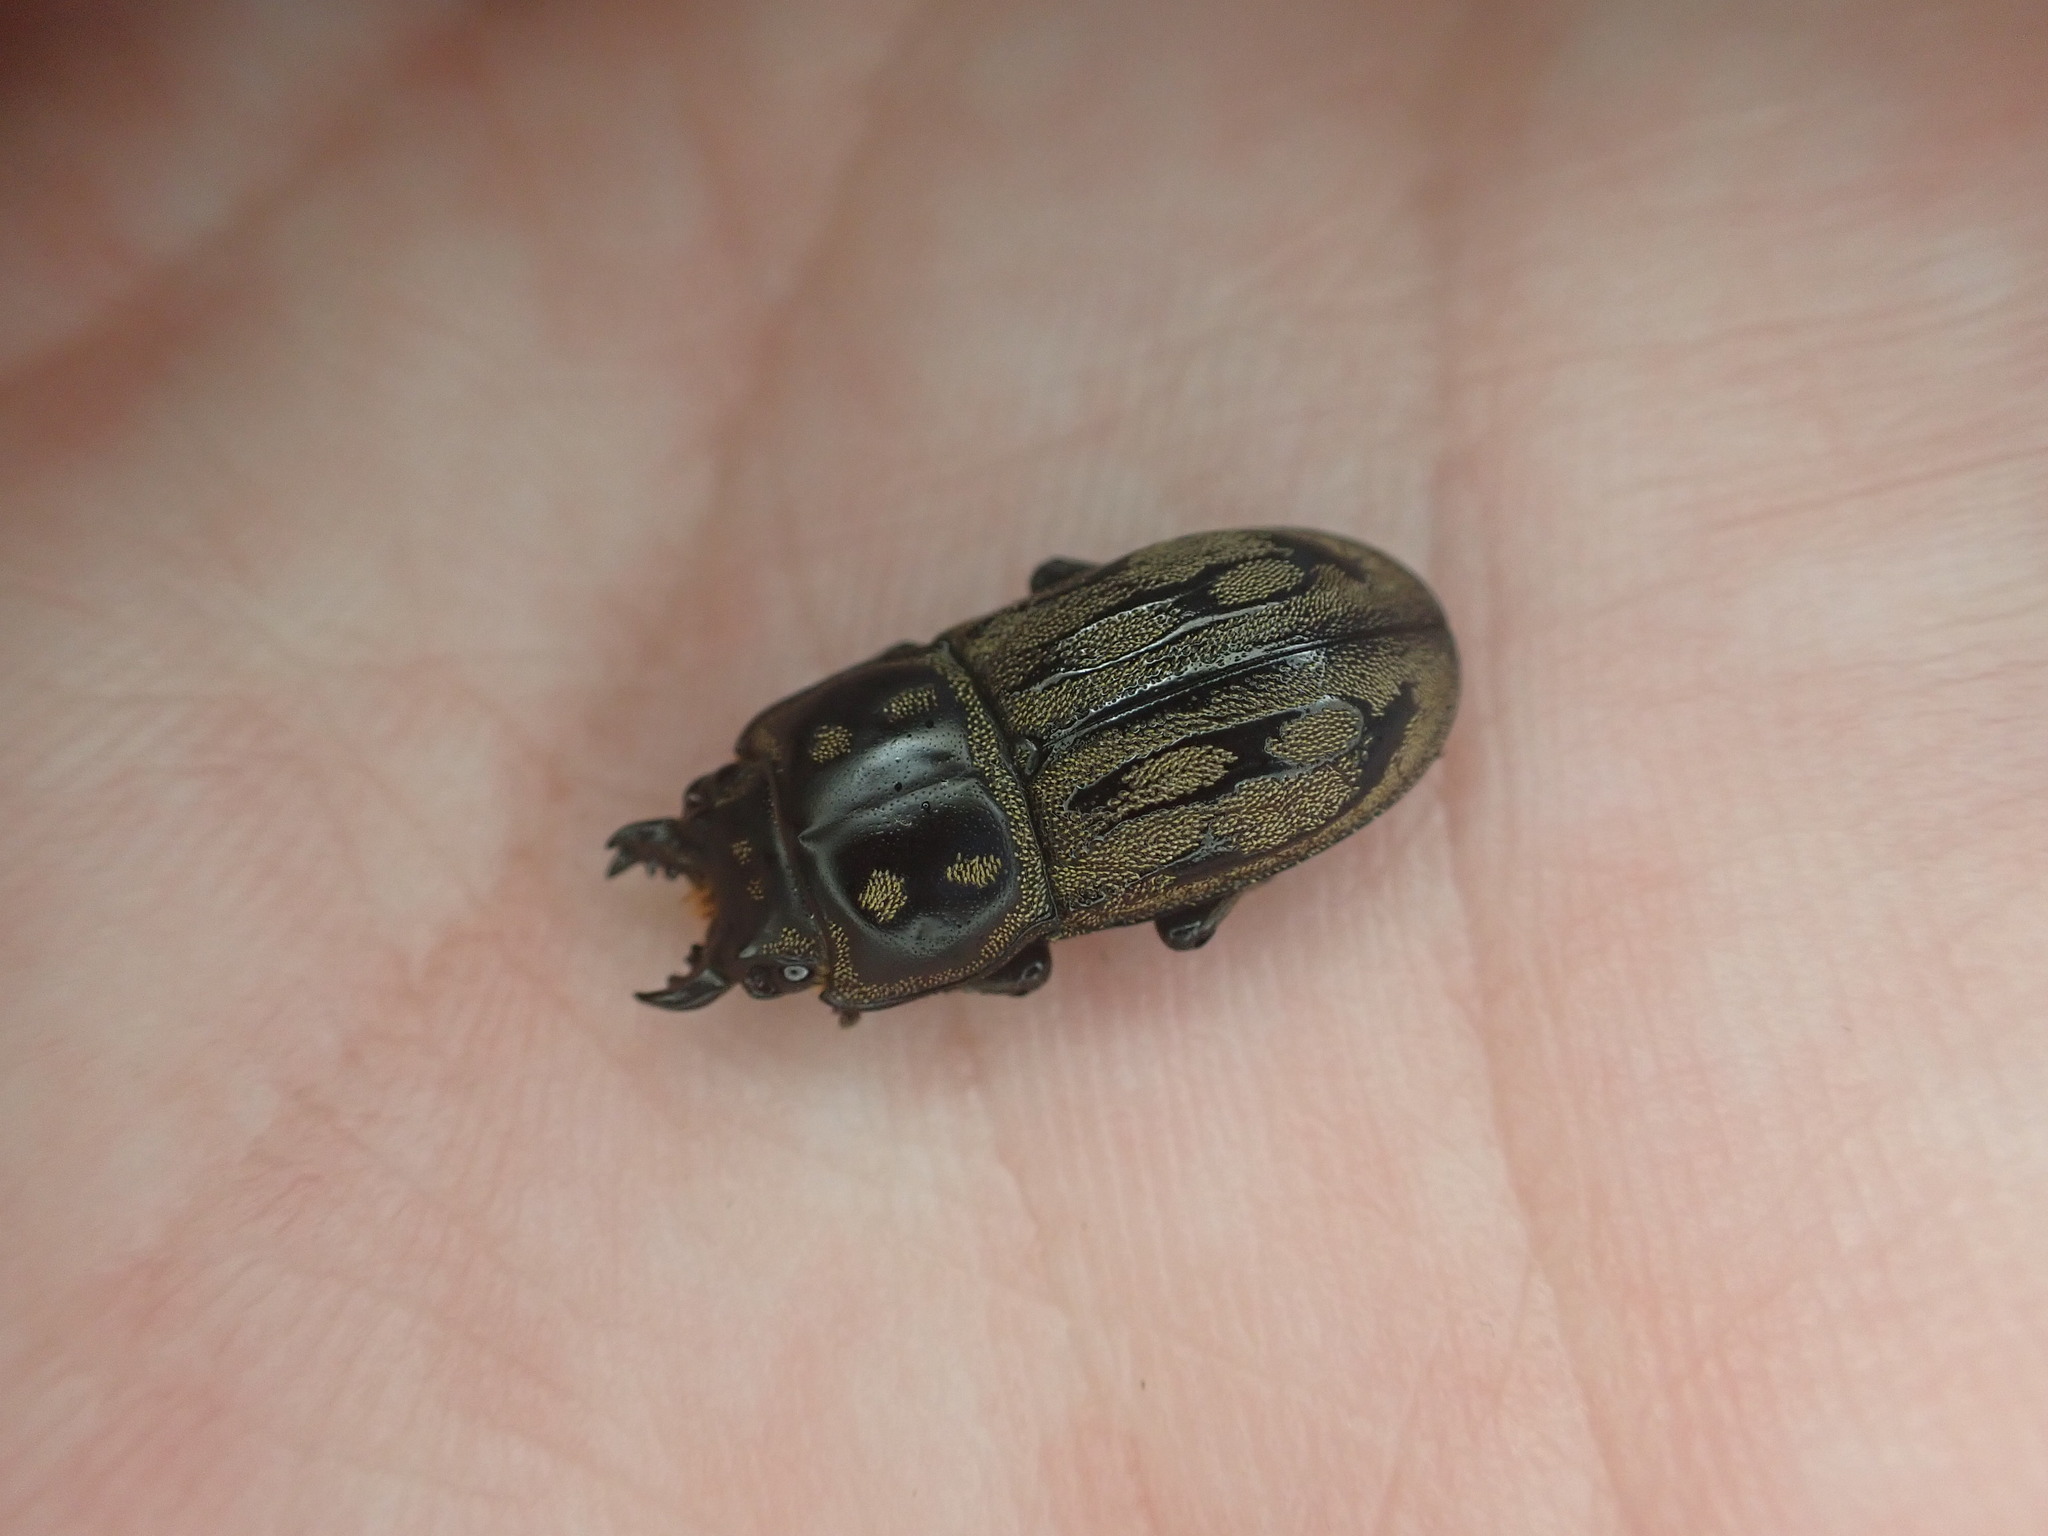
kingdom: Animalia
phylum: Arthropoda
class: Insecta
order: Coleoptera
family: Lucanidae
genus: Paralissotes
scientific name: Paralissotes reticulatus
